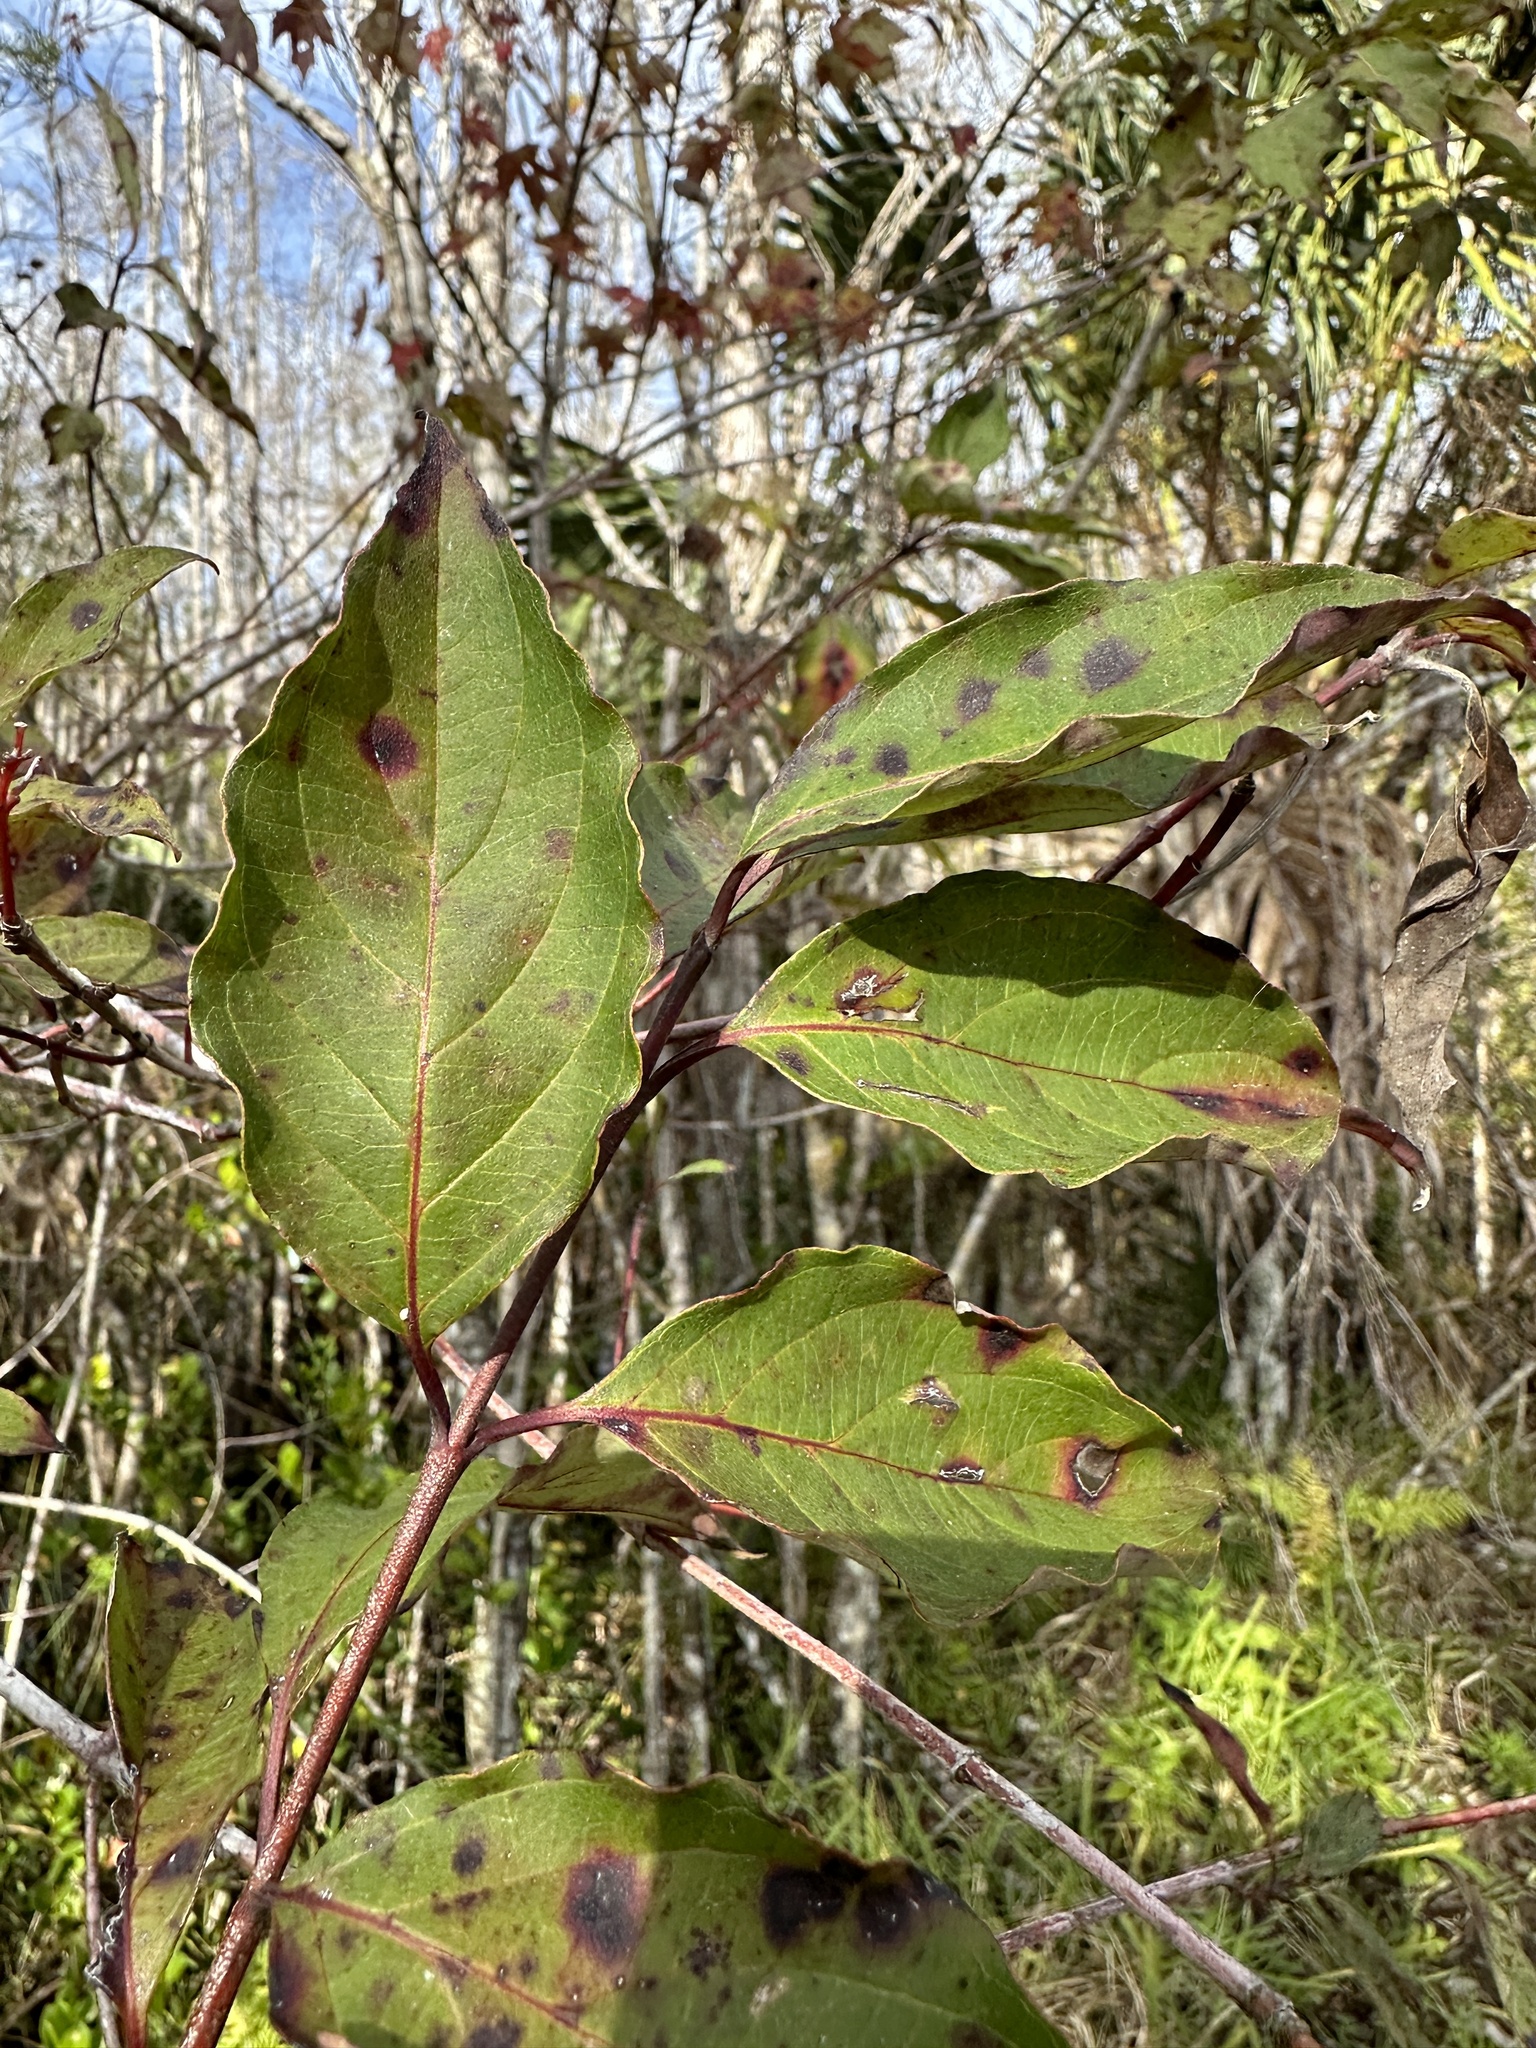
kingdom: Plantae
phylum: Tracheophyta
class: Magnoliopsida
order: Cornales
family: Cornaceae
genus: Cornus
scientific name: Cornus foemina
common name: Swamp dogwood
